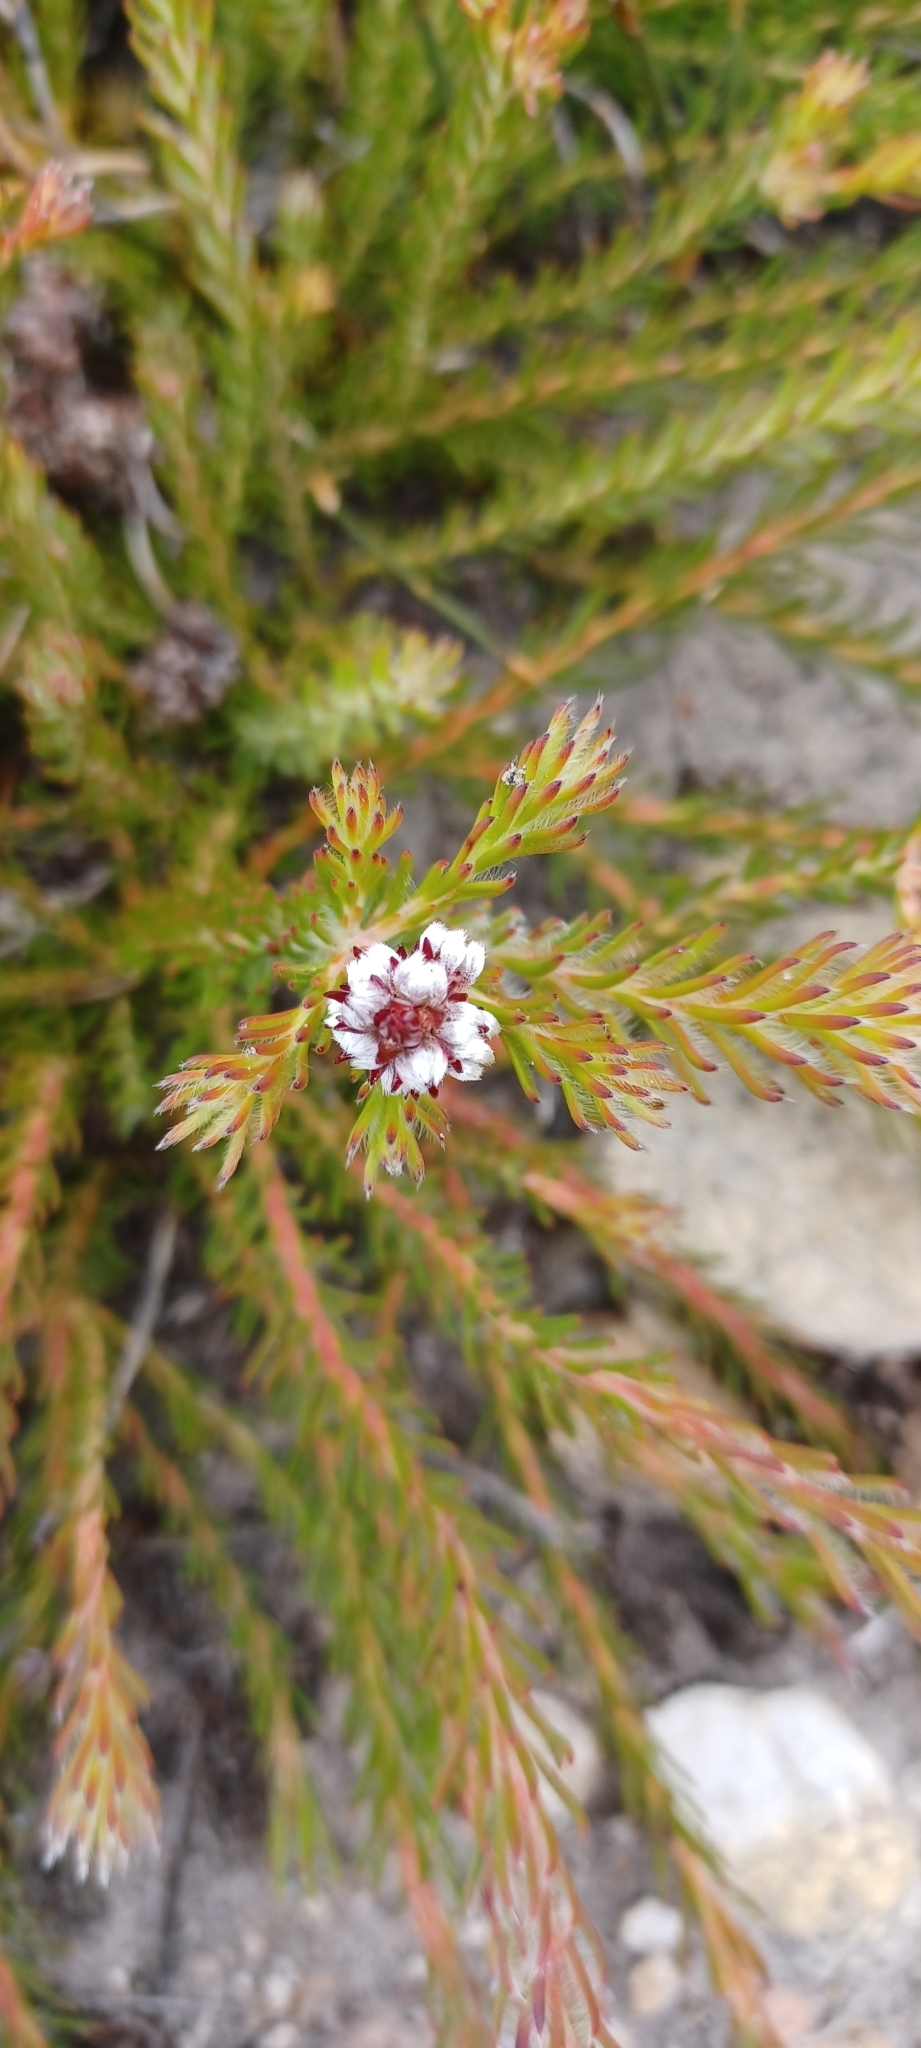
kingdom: Plantae
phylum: Tracheophyta
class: Magnoliopsida
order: Proteales
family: Proteaceae
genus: Spatalla
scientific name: Spatalla confusa
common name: Long-tube spoon
